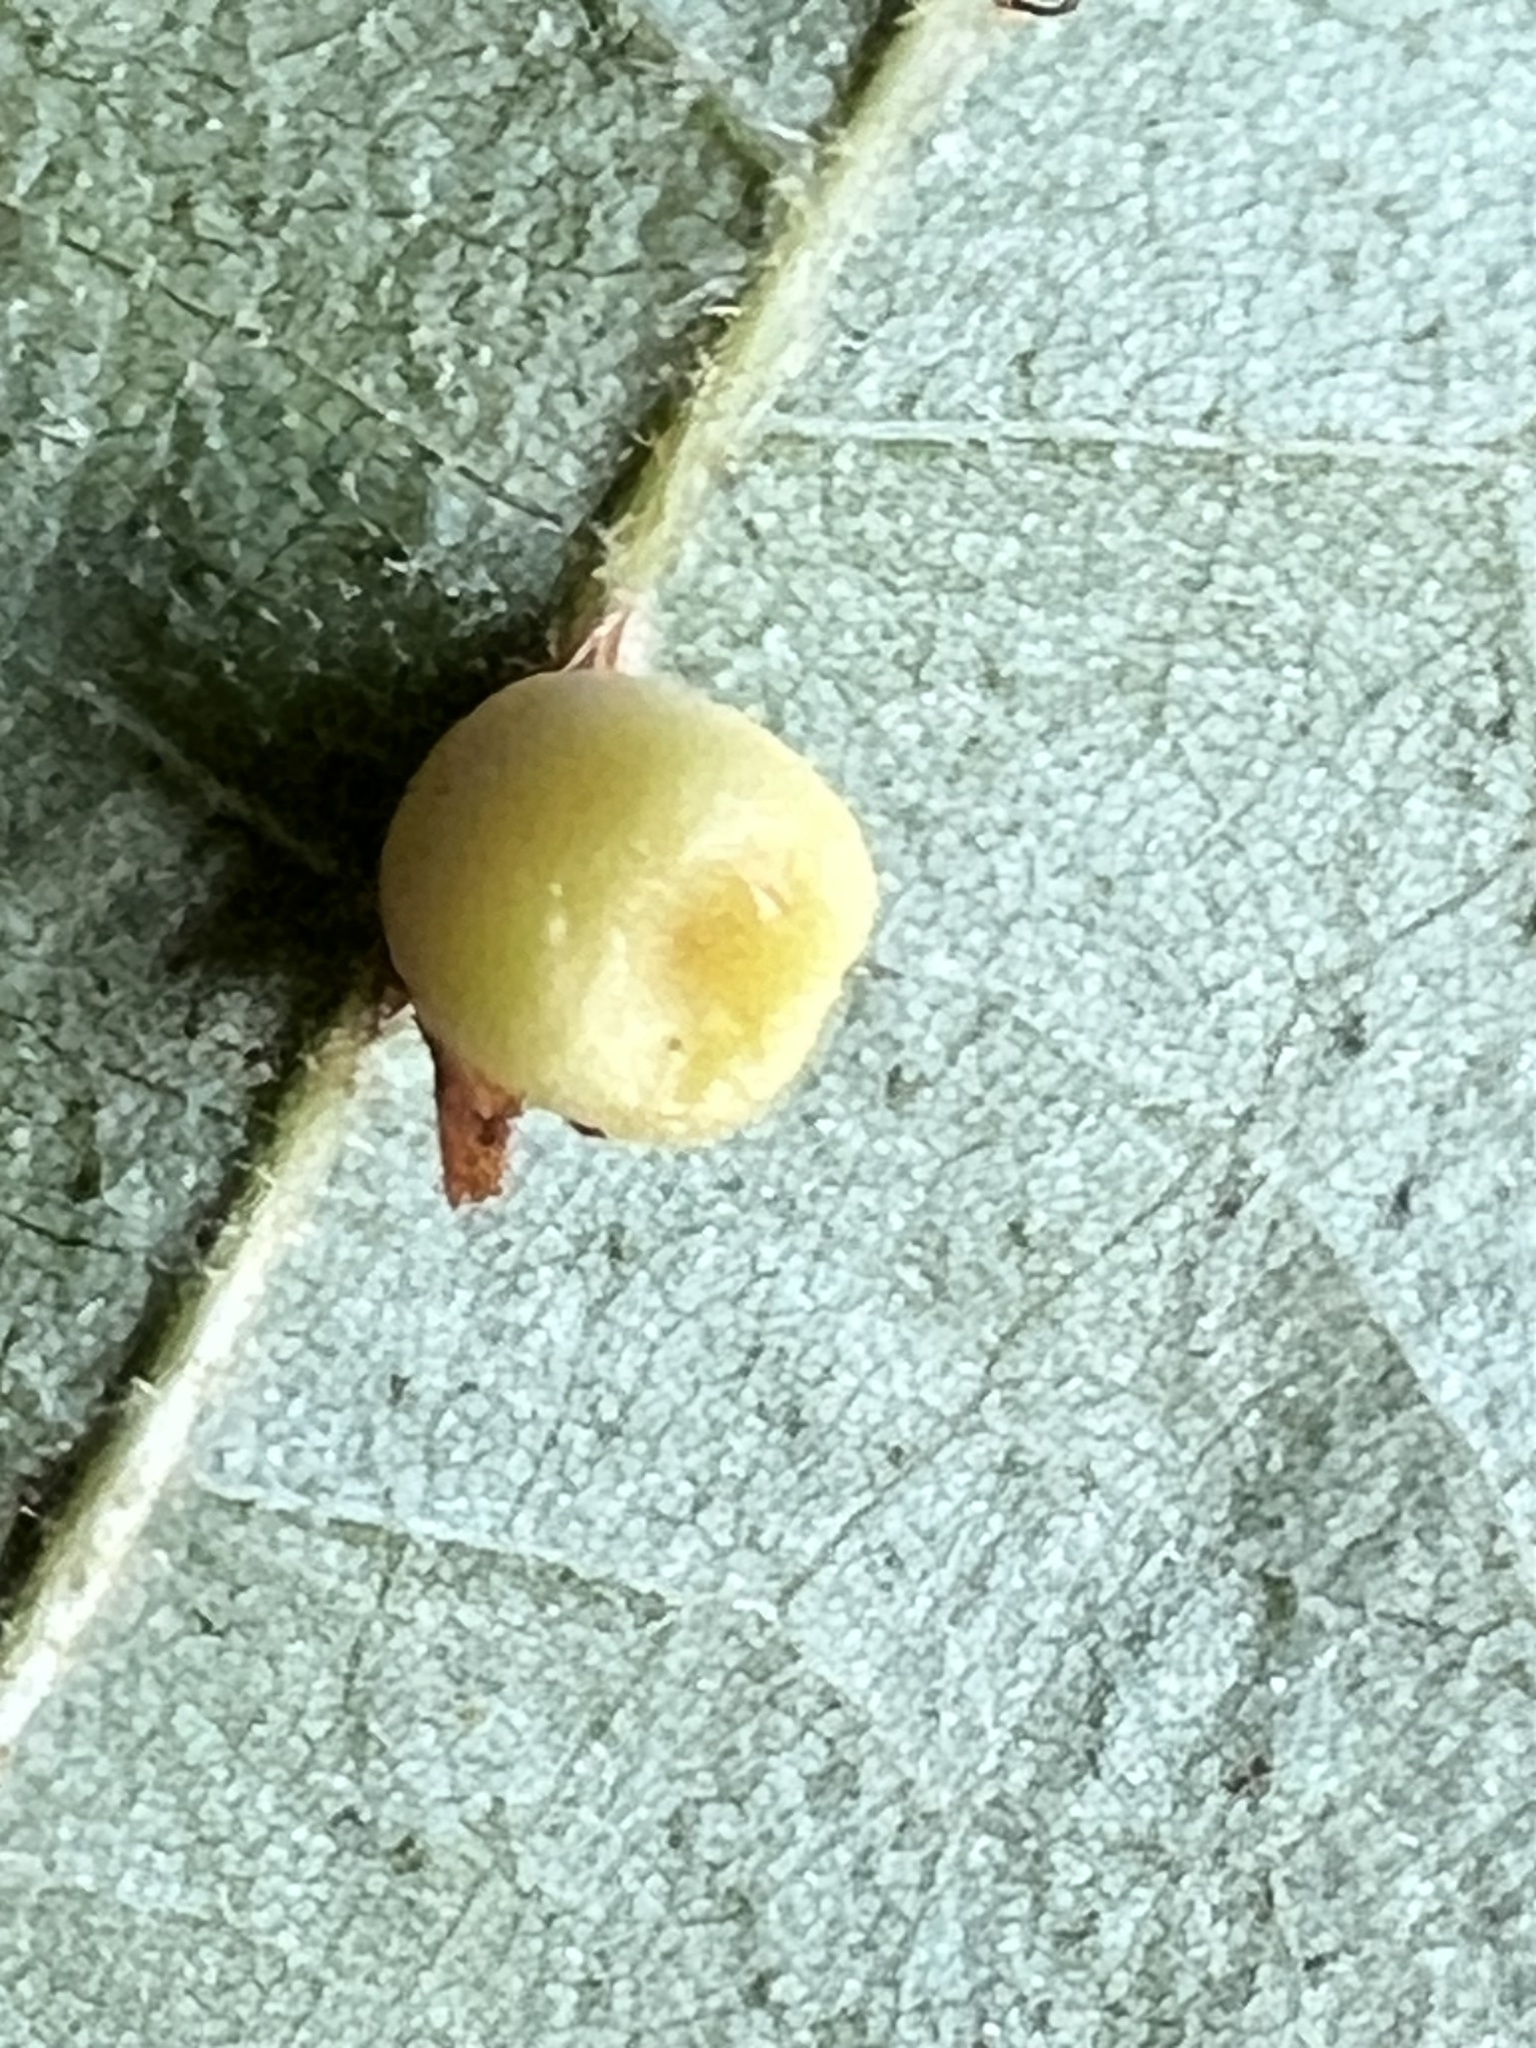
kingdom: Animalia
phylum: Arthropoda
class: Insecta
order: Hymenoptera
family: Cynipidae
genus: Kokkocynips
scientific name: Kokkocynips rileyi
